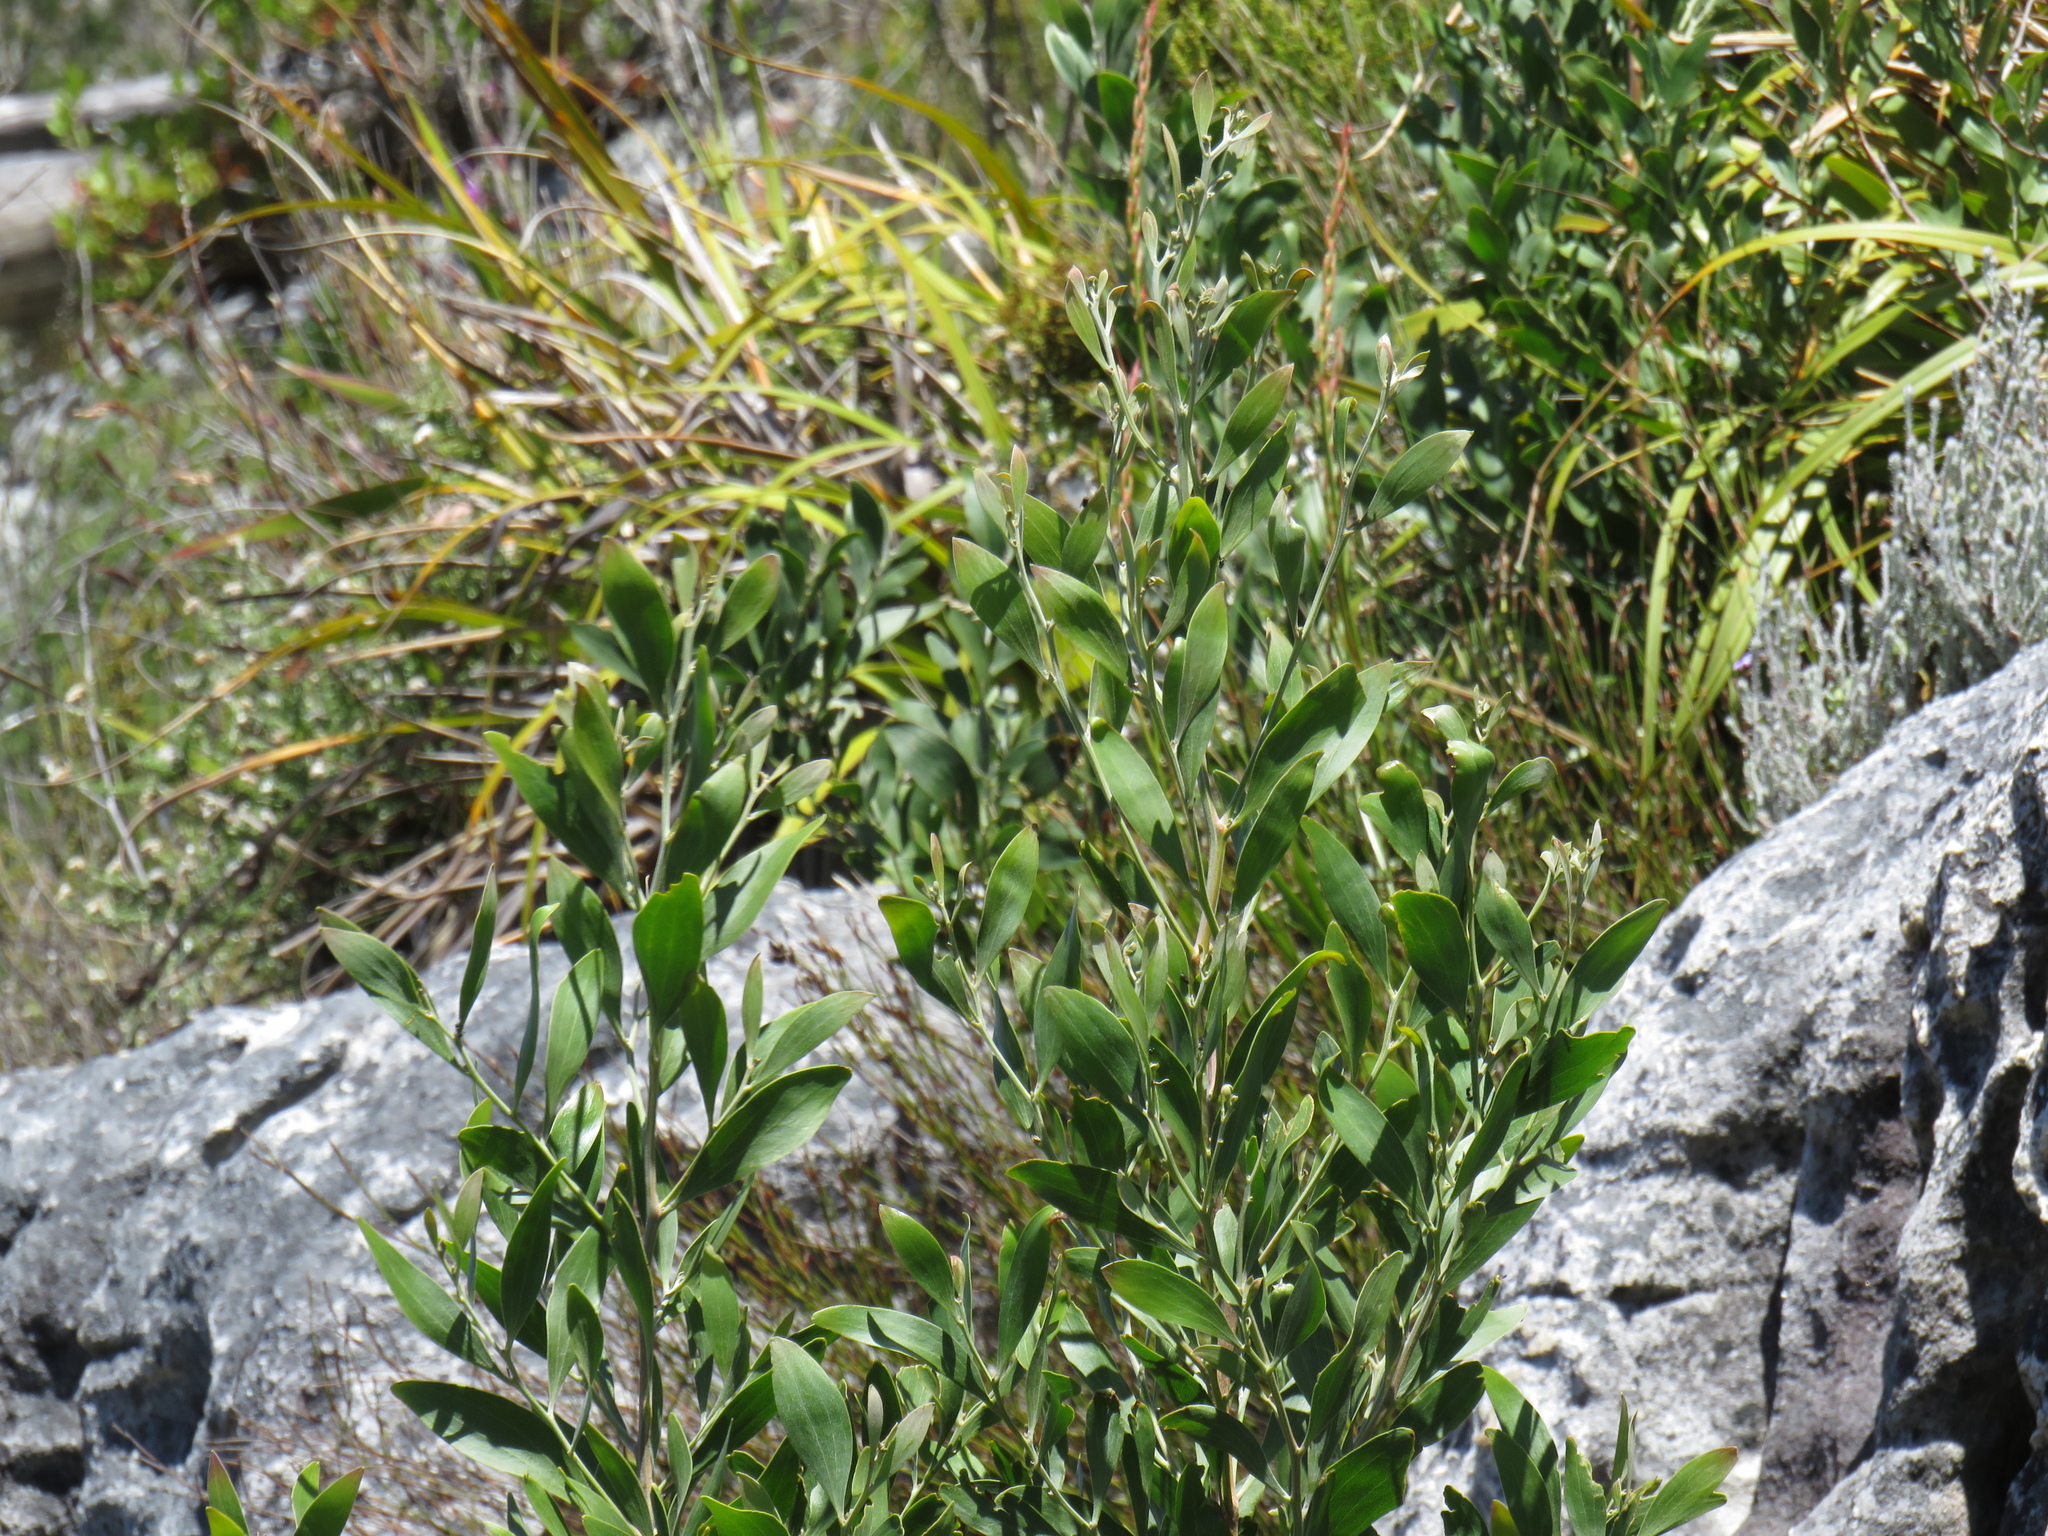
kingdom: Plantae
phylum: Tracheophyta
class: Magnoliopsida
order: Fabales
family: Fabaceae
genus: Acacia
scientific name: Acacia melanoxylon
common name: Blackwood
